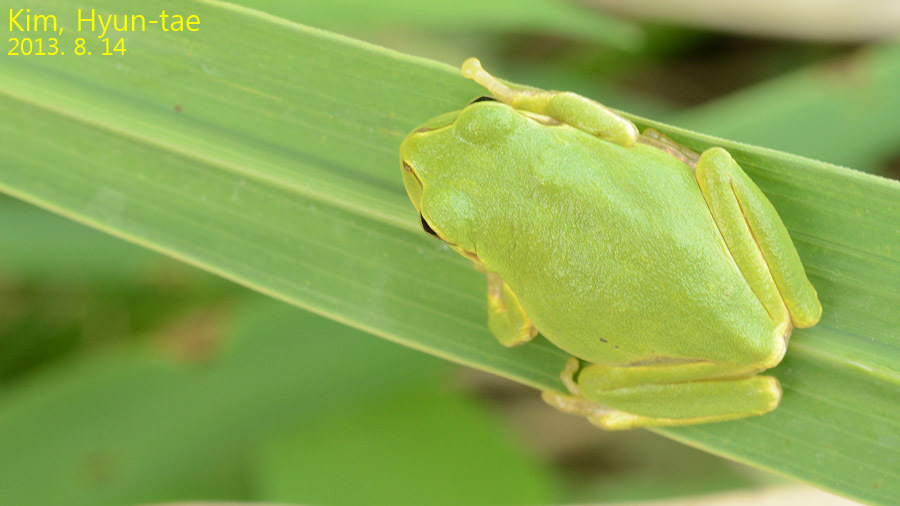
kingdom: Animalia
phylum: Chordata
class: Amphibia
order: Anura
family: Hylidae
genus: Dryophytes
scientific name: Dryophytes japonicus
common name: Japanese treefrog
